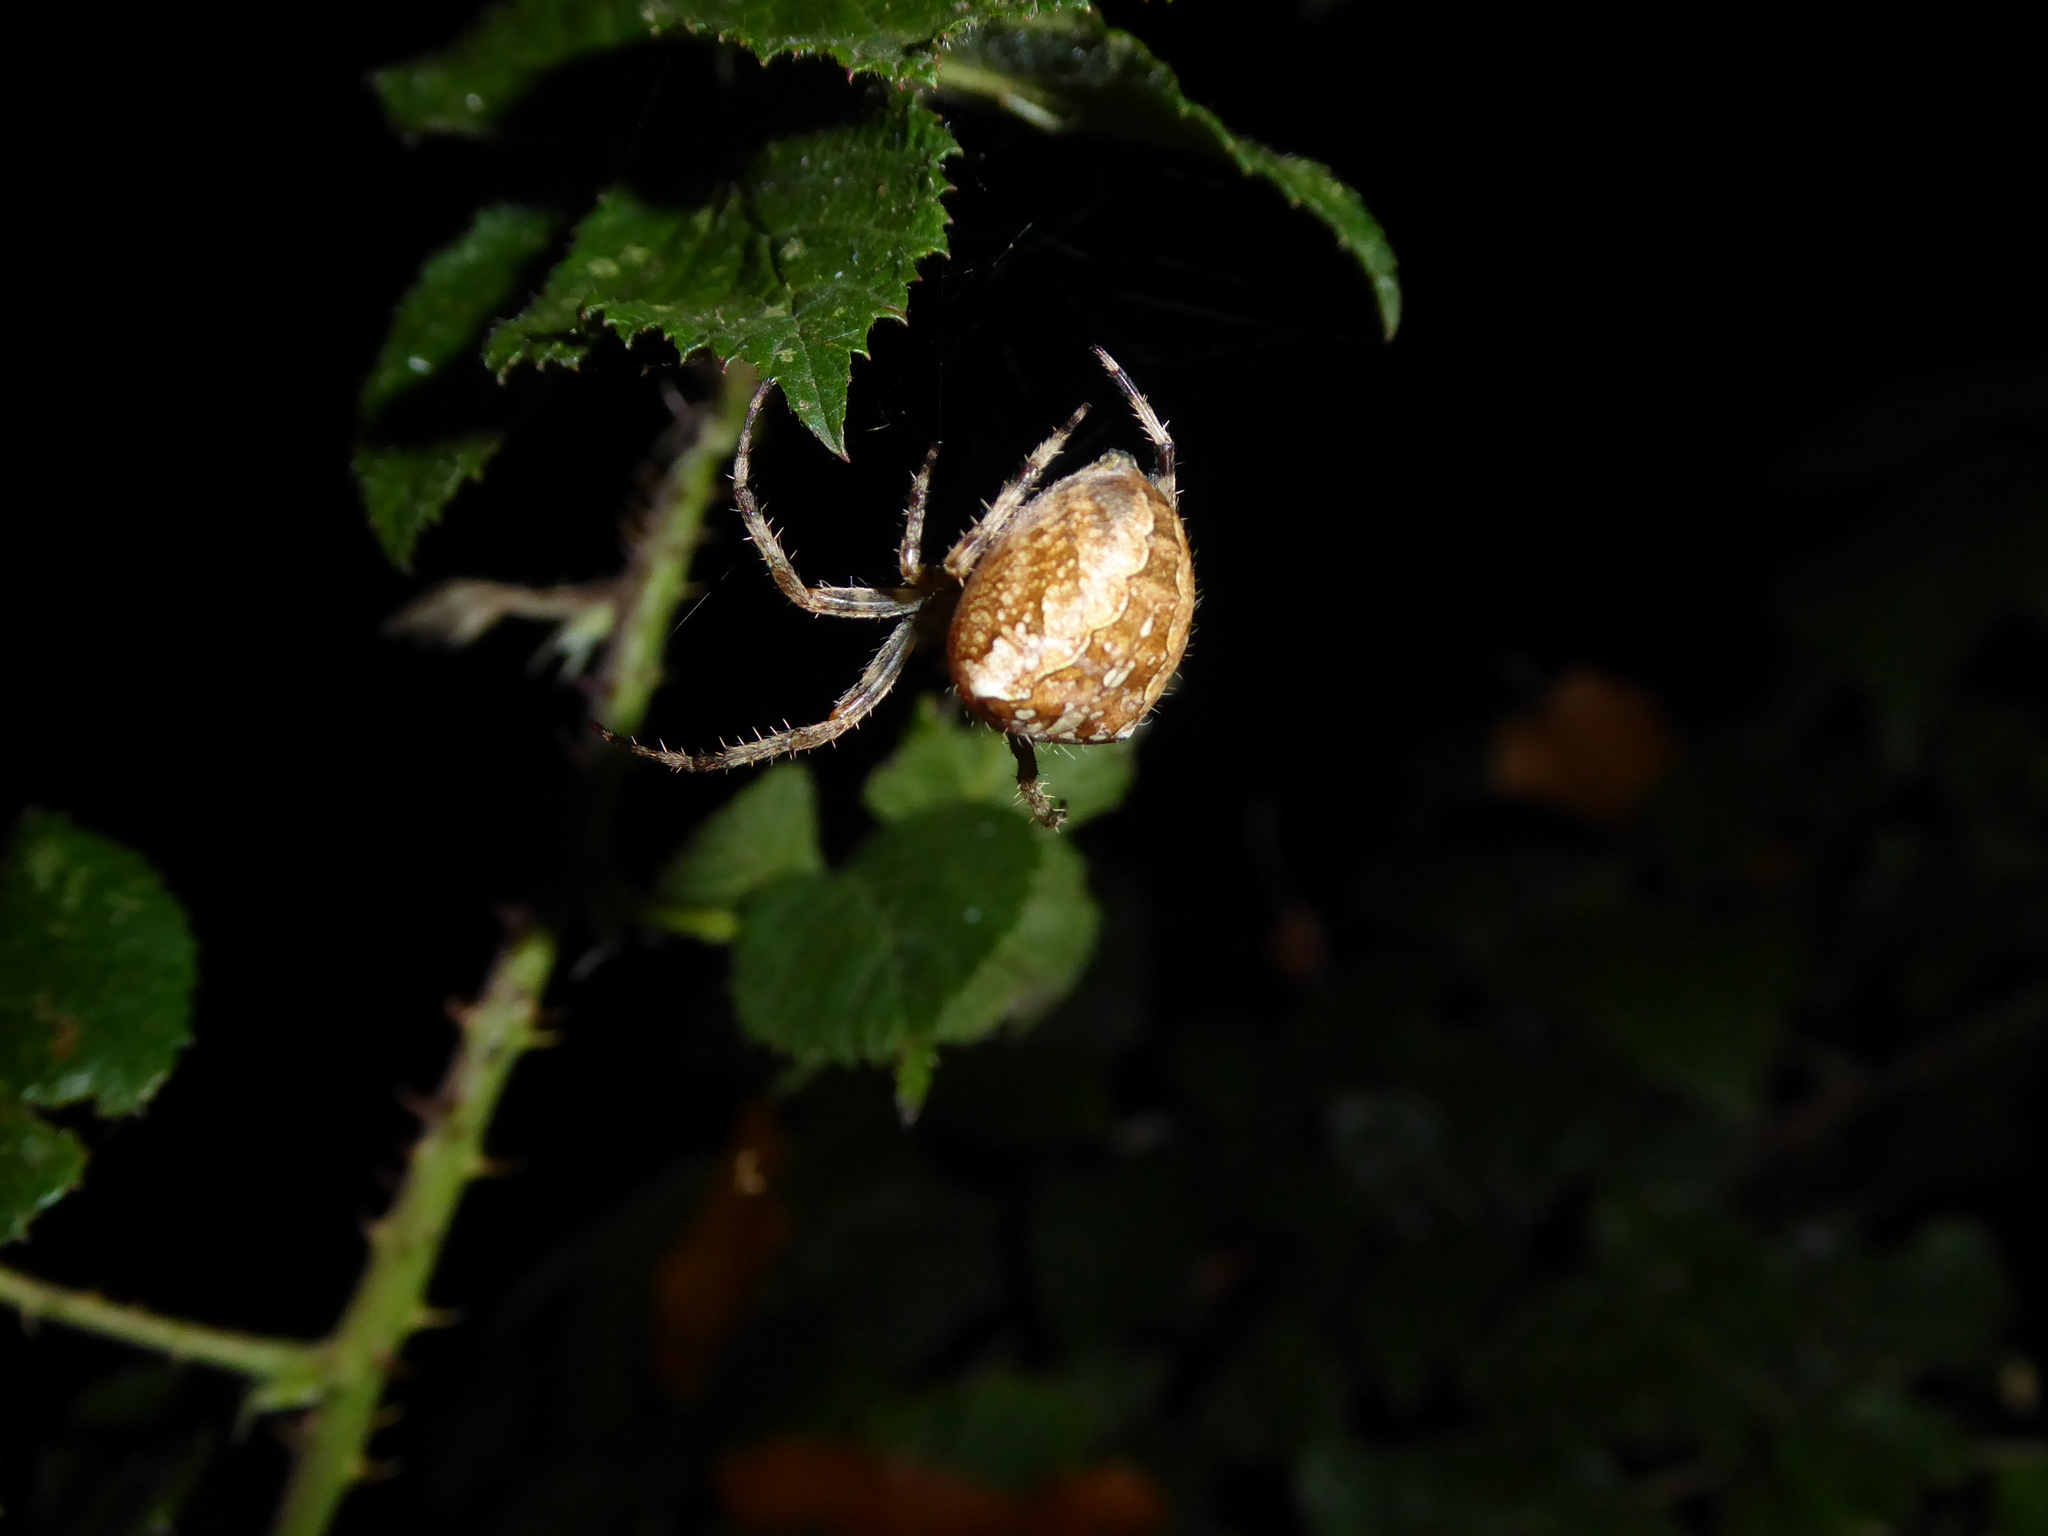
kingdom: Animalia
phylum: Arthropoda
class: Arachnida
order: Araneae
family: Araneidae
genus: Araneus
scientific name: Araneus diadematus
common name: Cross orbweaver
